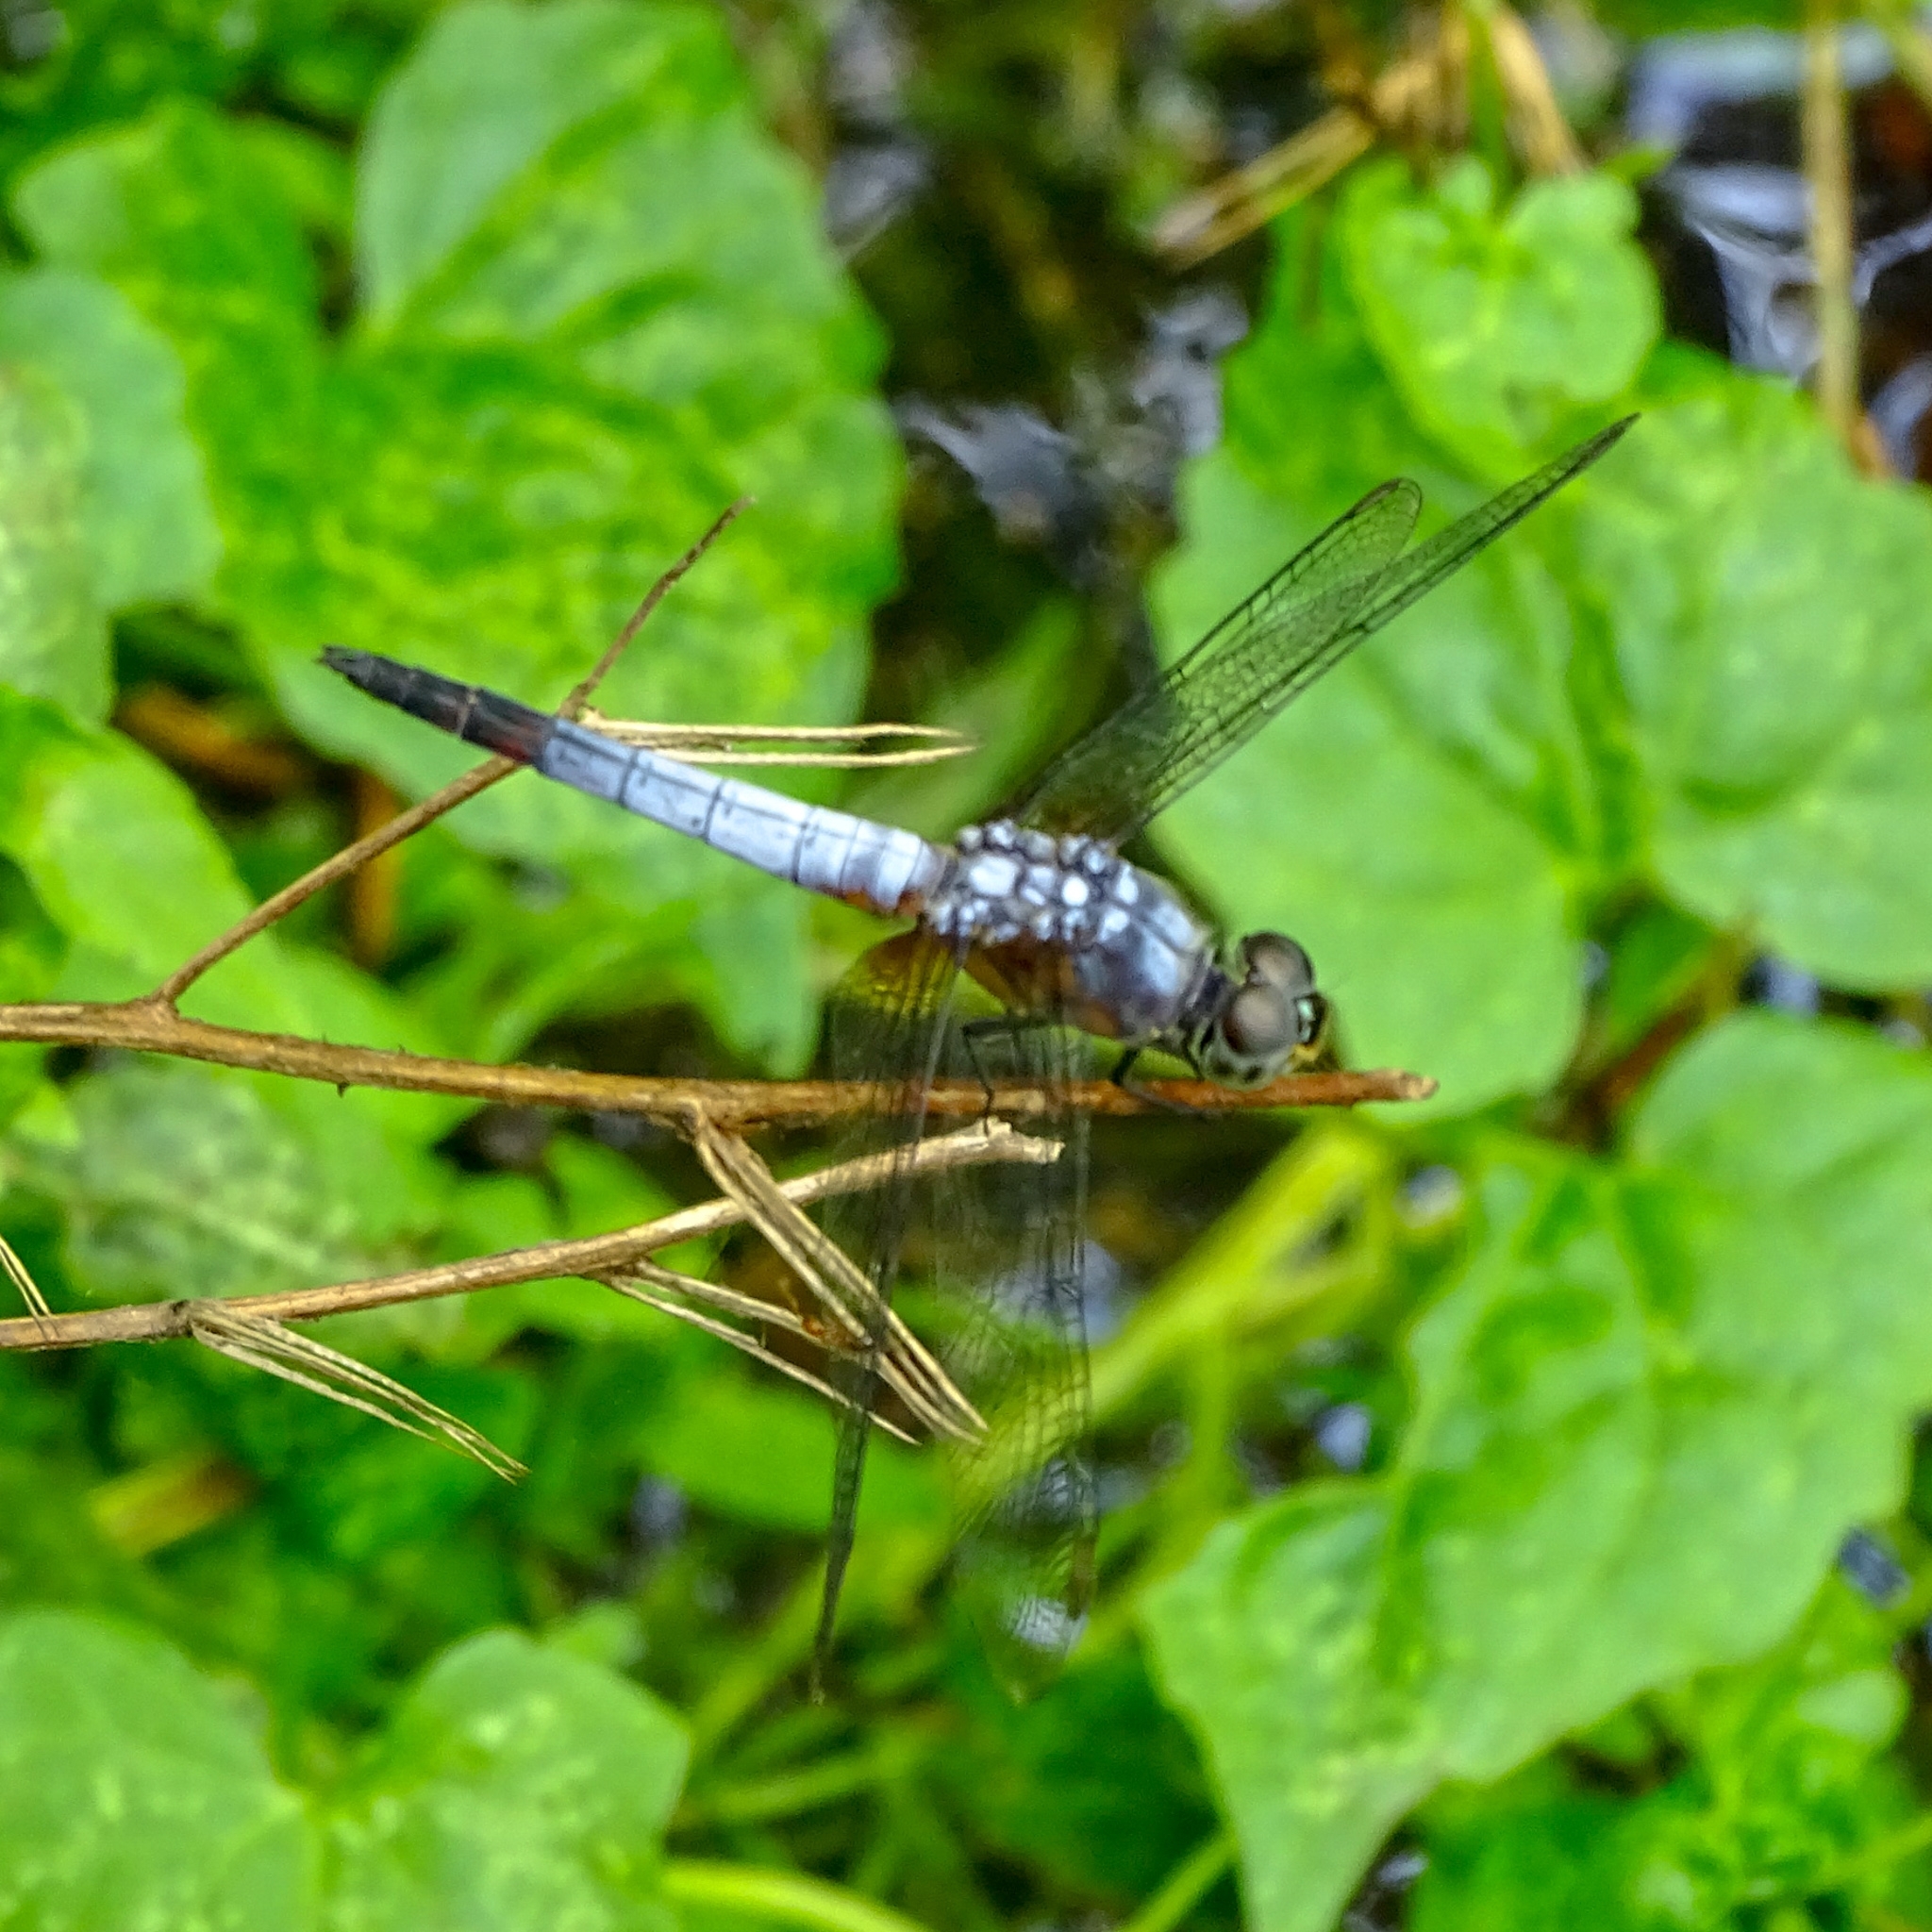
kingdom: Animalia
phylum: Arthropoda
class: Insecta
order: Odonata
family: Libellulidae
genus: Brachydiplax
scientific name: Brachydiplax chalybea
